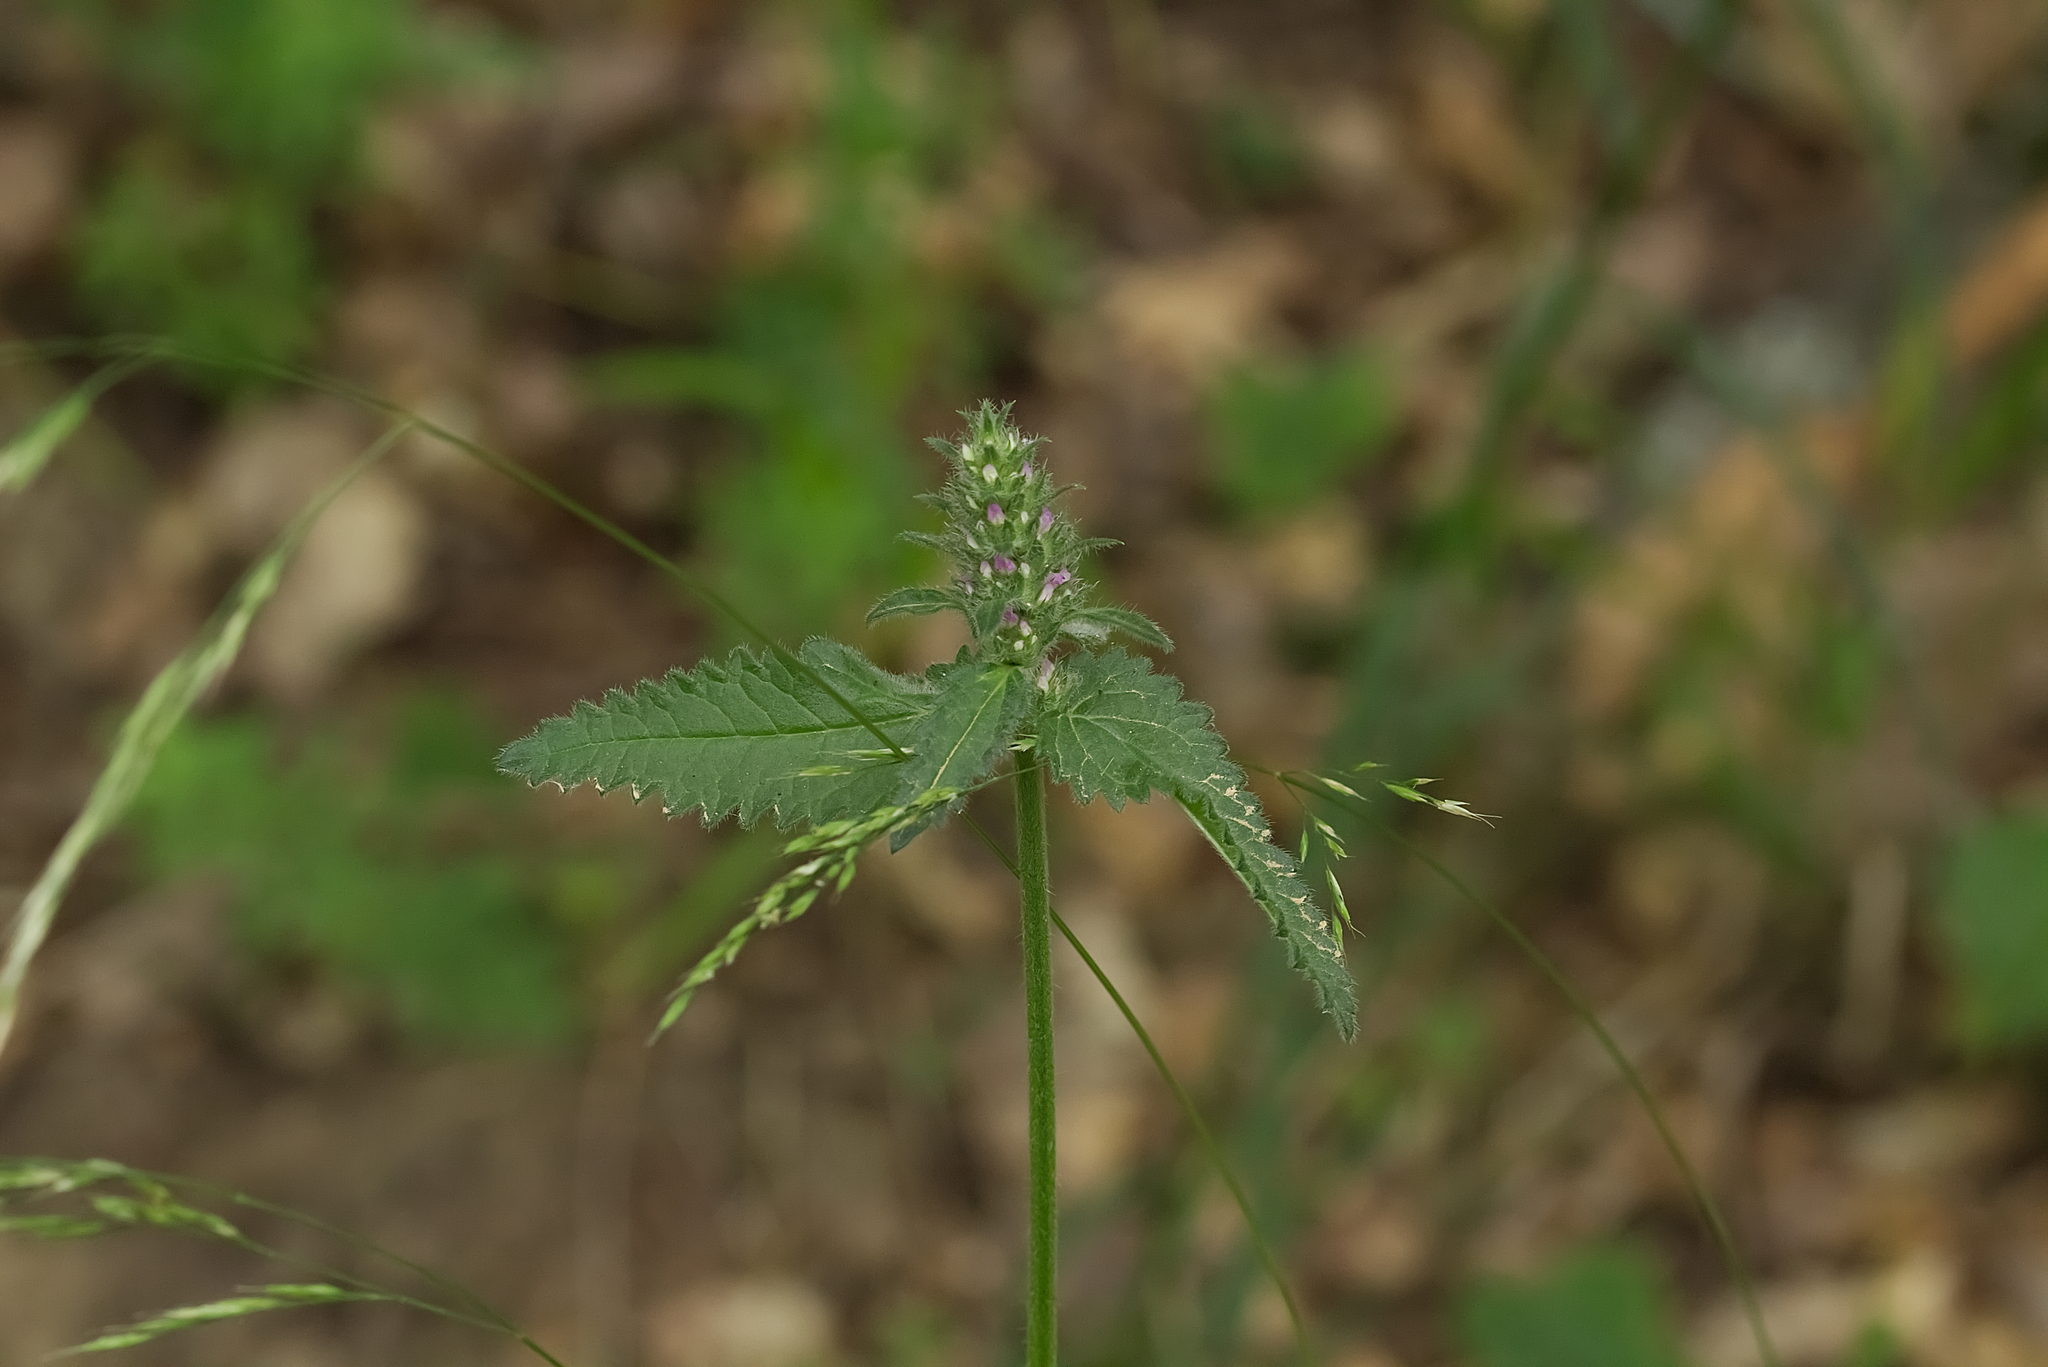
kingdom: Plantae
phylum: Tracheophyta
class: Magnoliopsida
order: Lamiales
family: Lamiaceae
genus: Betonica
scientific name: Betonica officinalis
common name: Bishop's-wort
